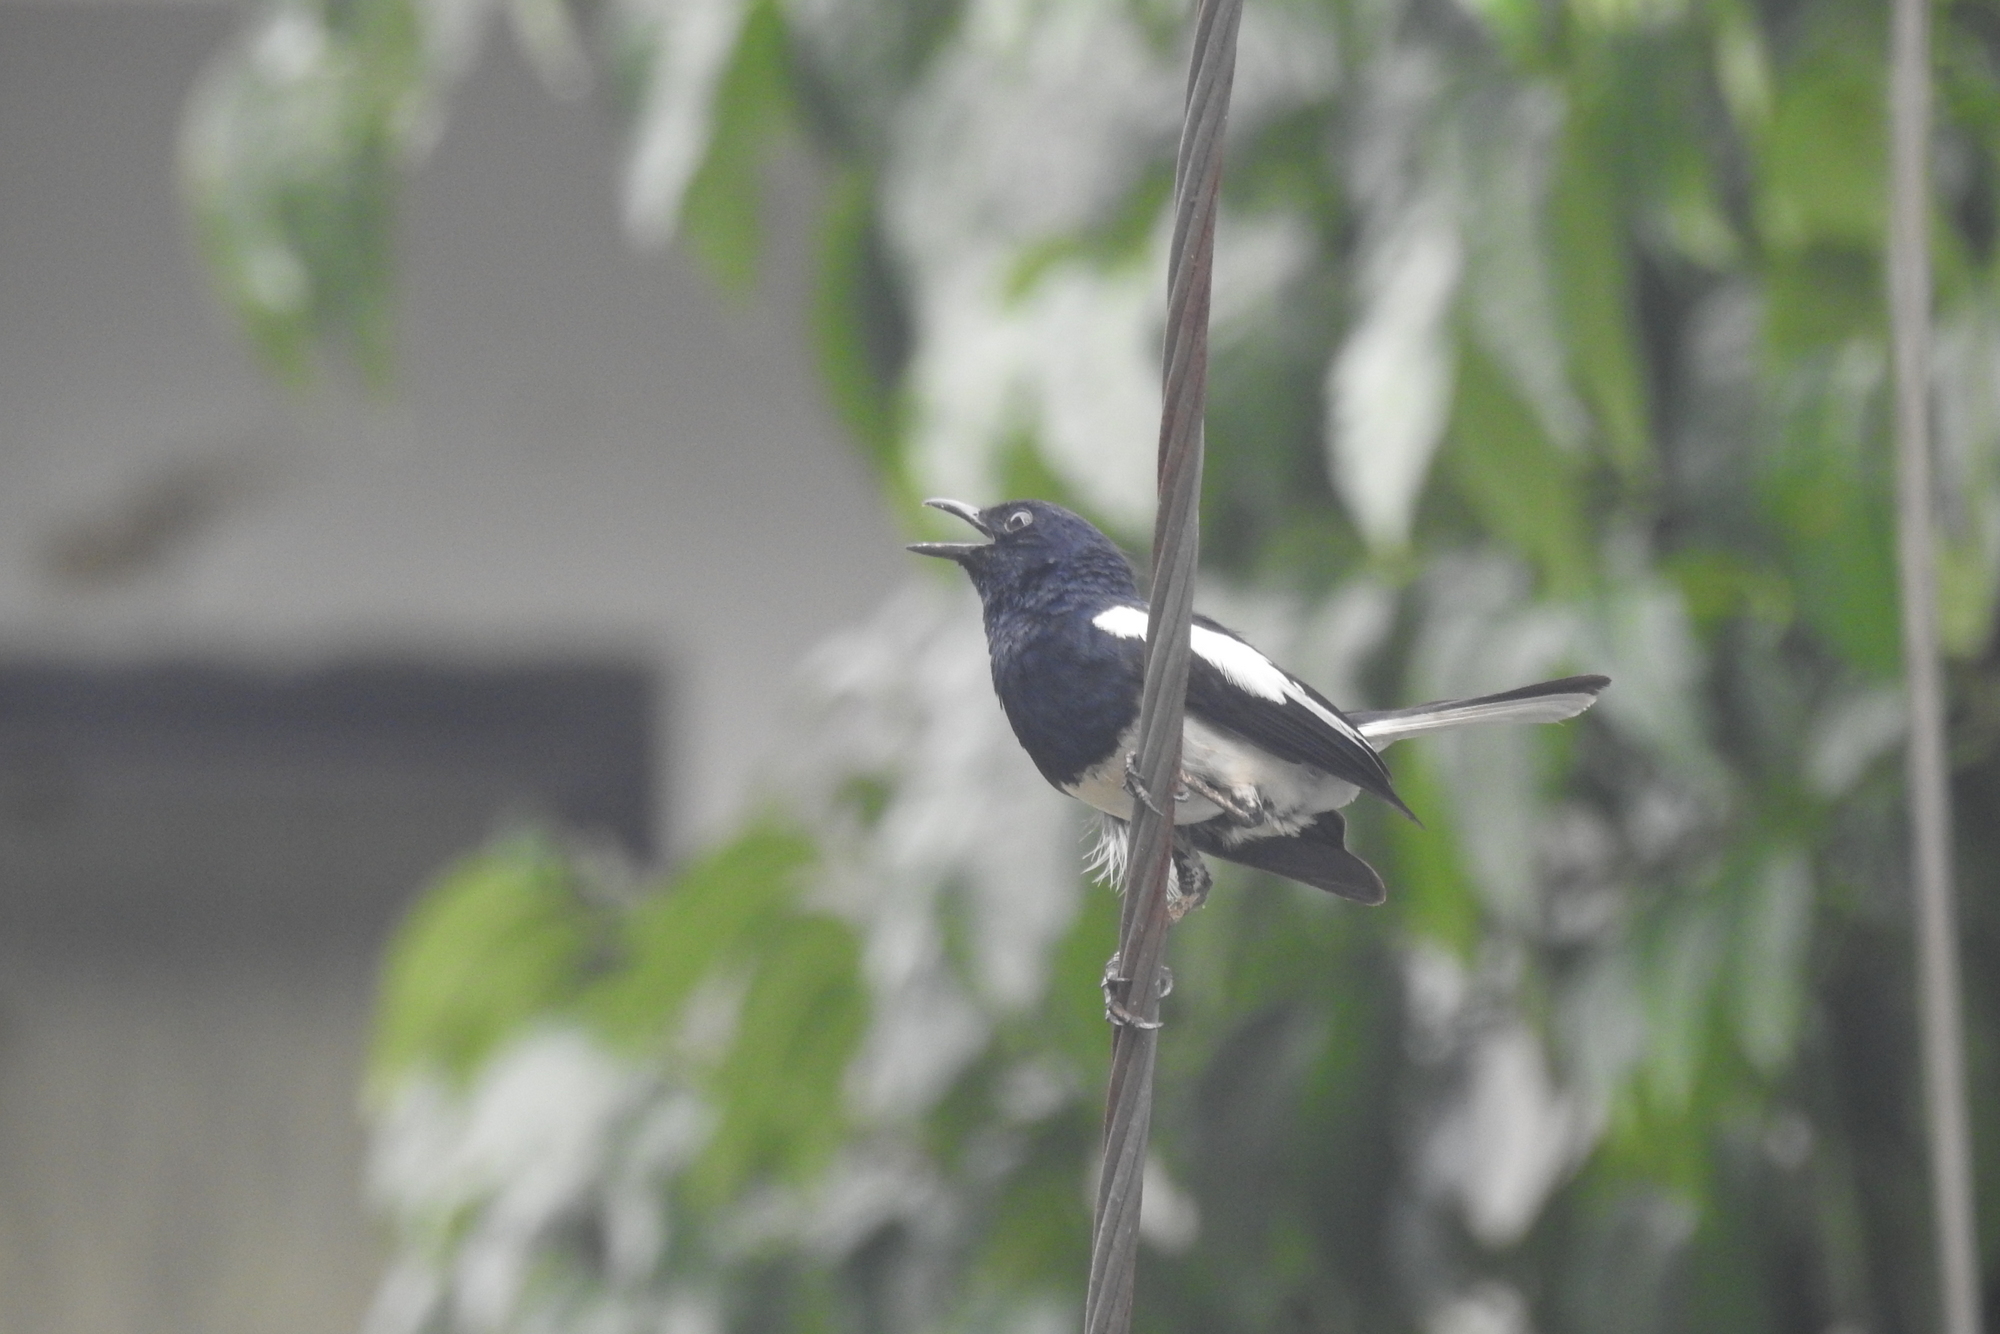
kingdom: Animalia
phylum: Chordata
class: Aves
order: Passeriformes
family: Muscicapidae
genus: Copsychus
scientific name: Copsychus saularis
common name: Oriental magpie-robin
